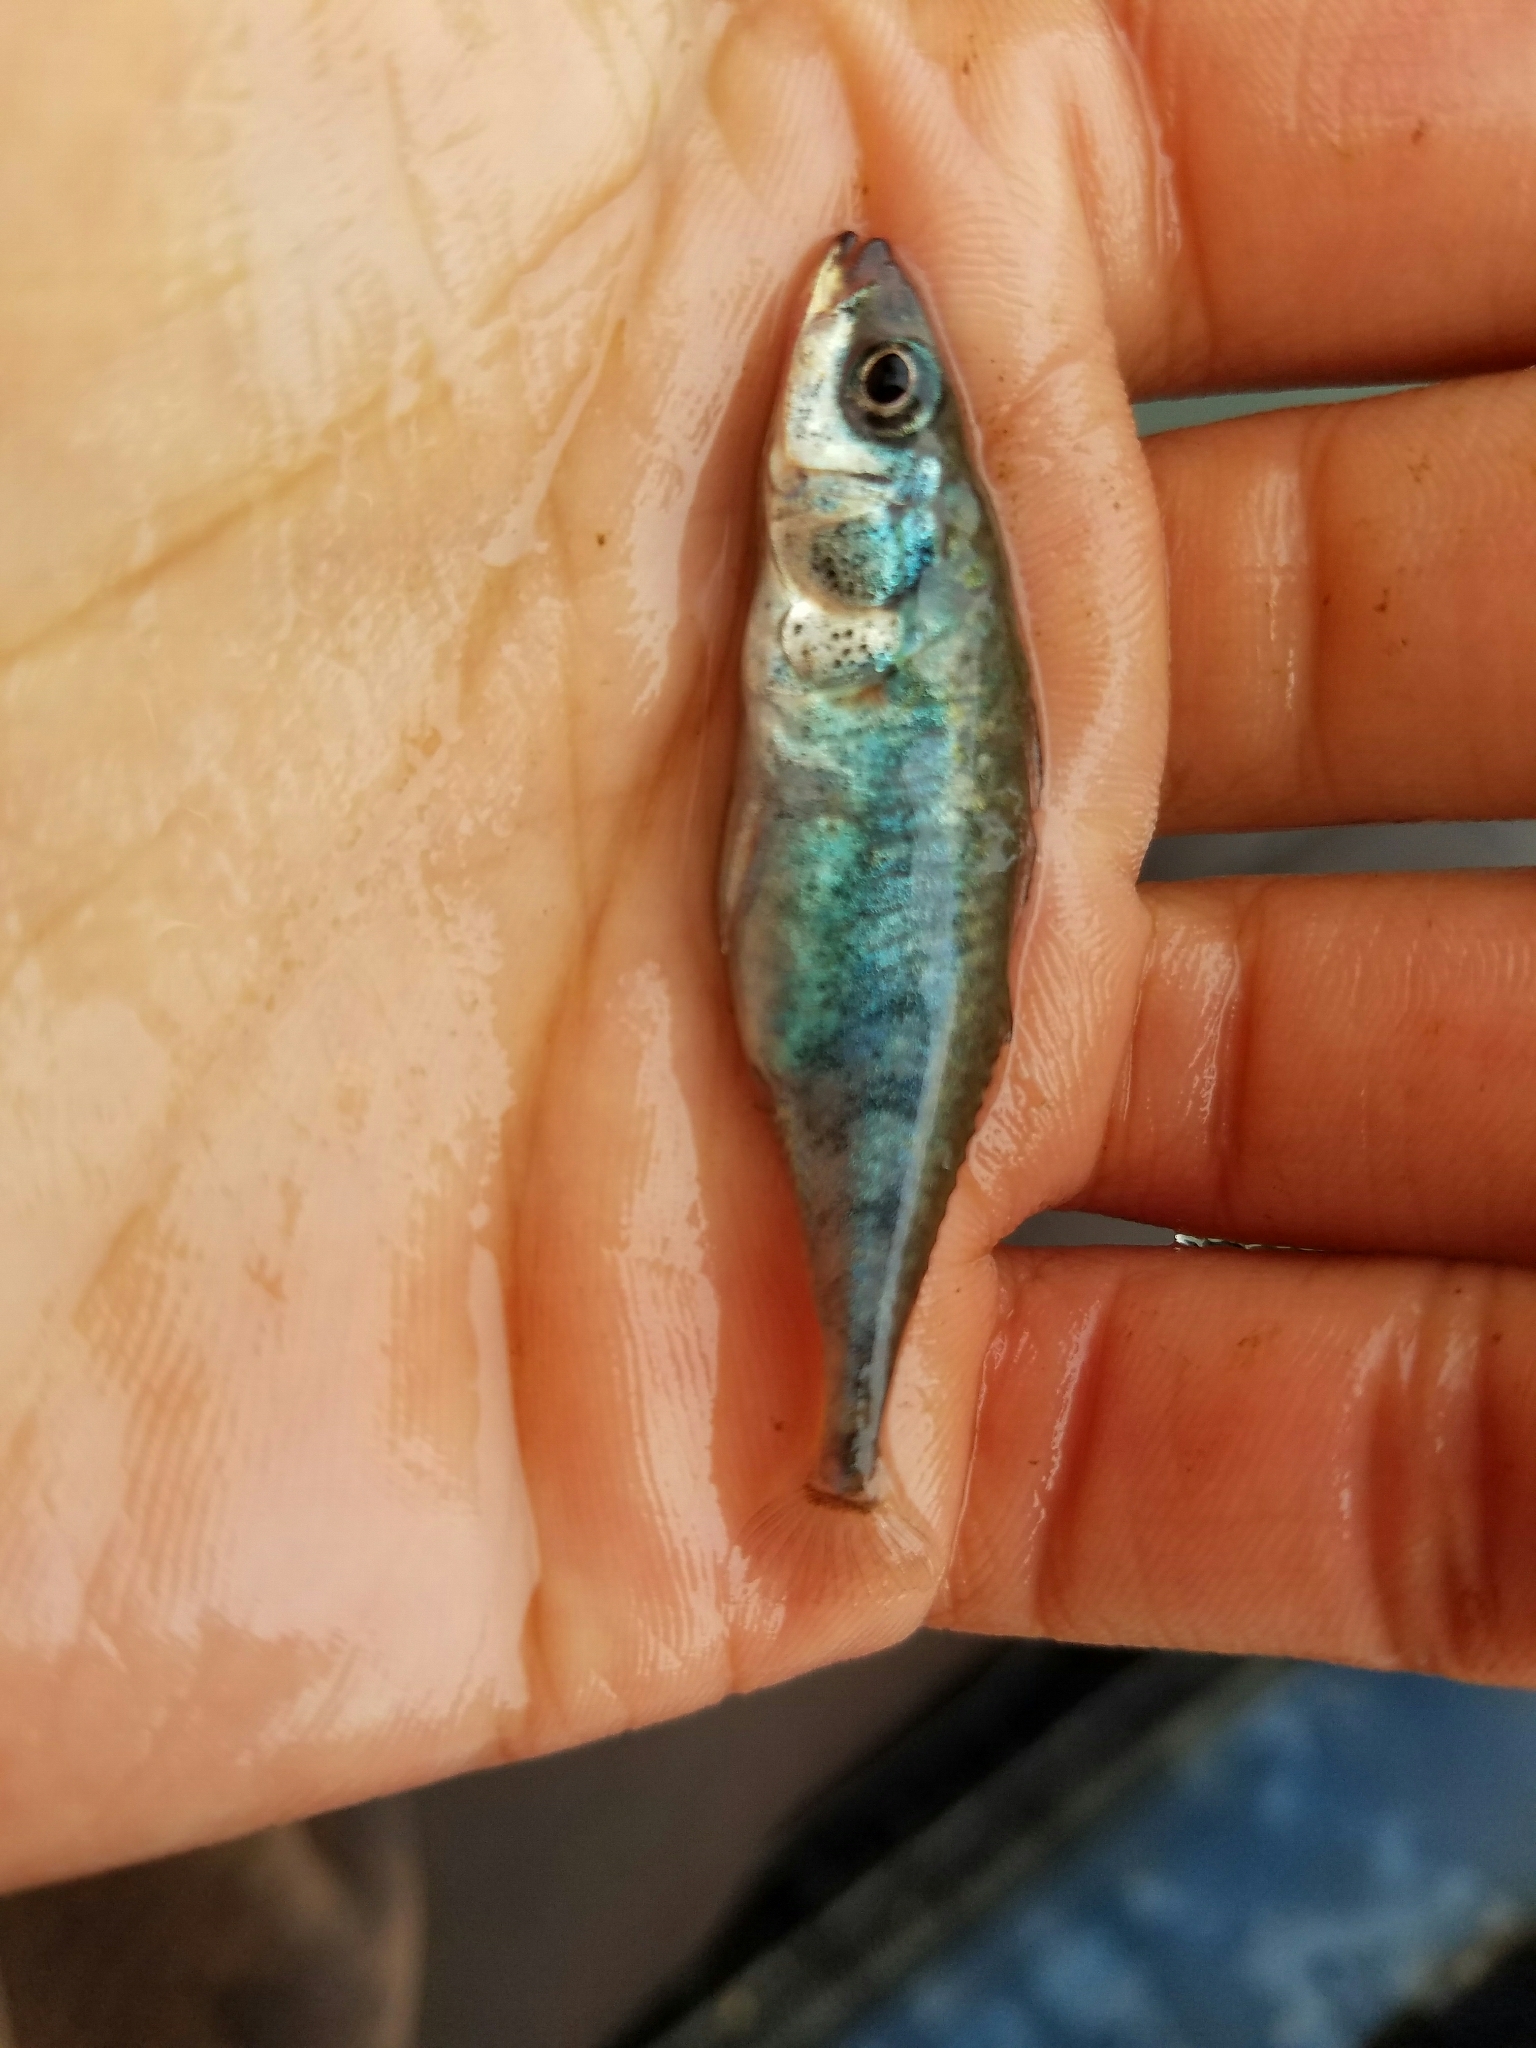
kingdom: Animalia
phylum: Chordata
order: Gasterosteiformes
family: Gasterosteidae
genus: Gasterosteus
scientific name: Gasterosteus aculeatus
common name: Three-spined stickleback
